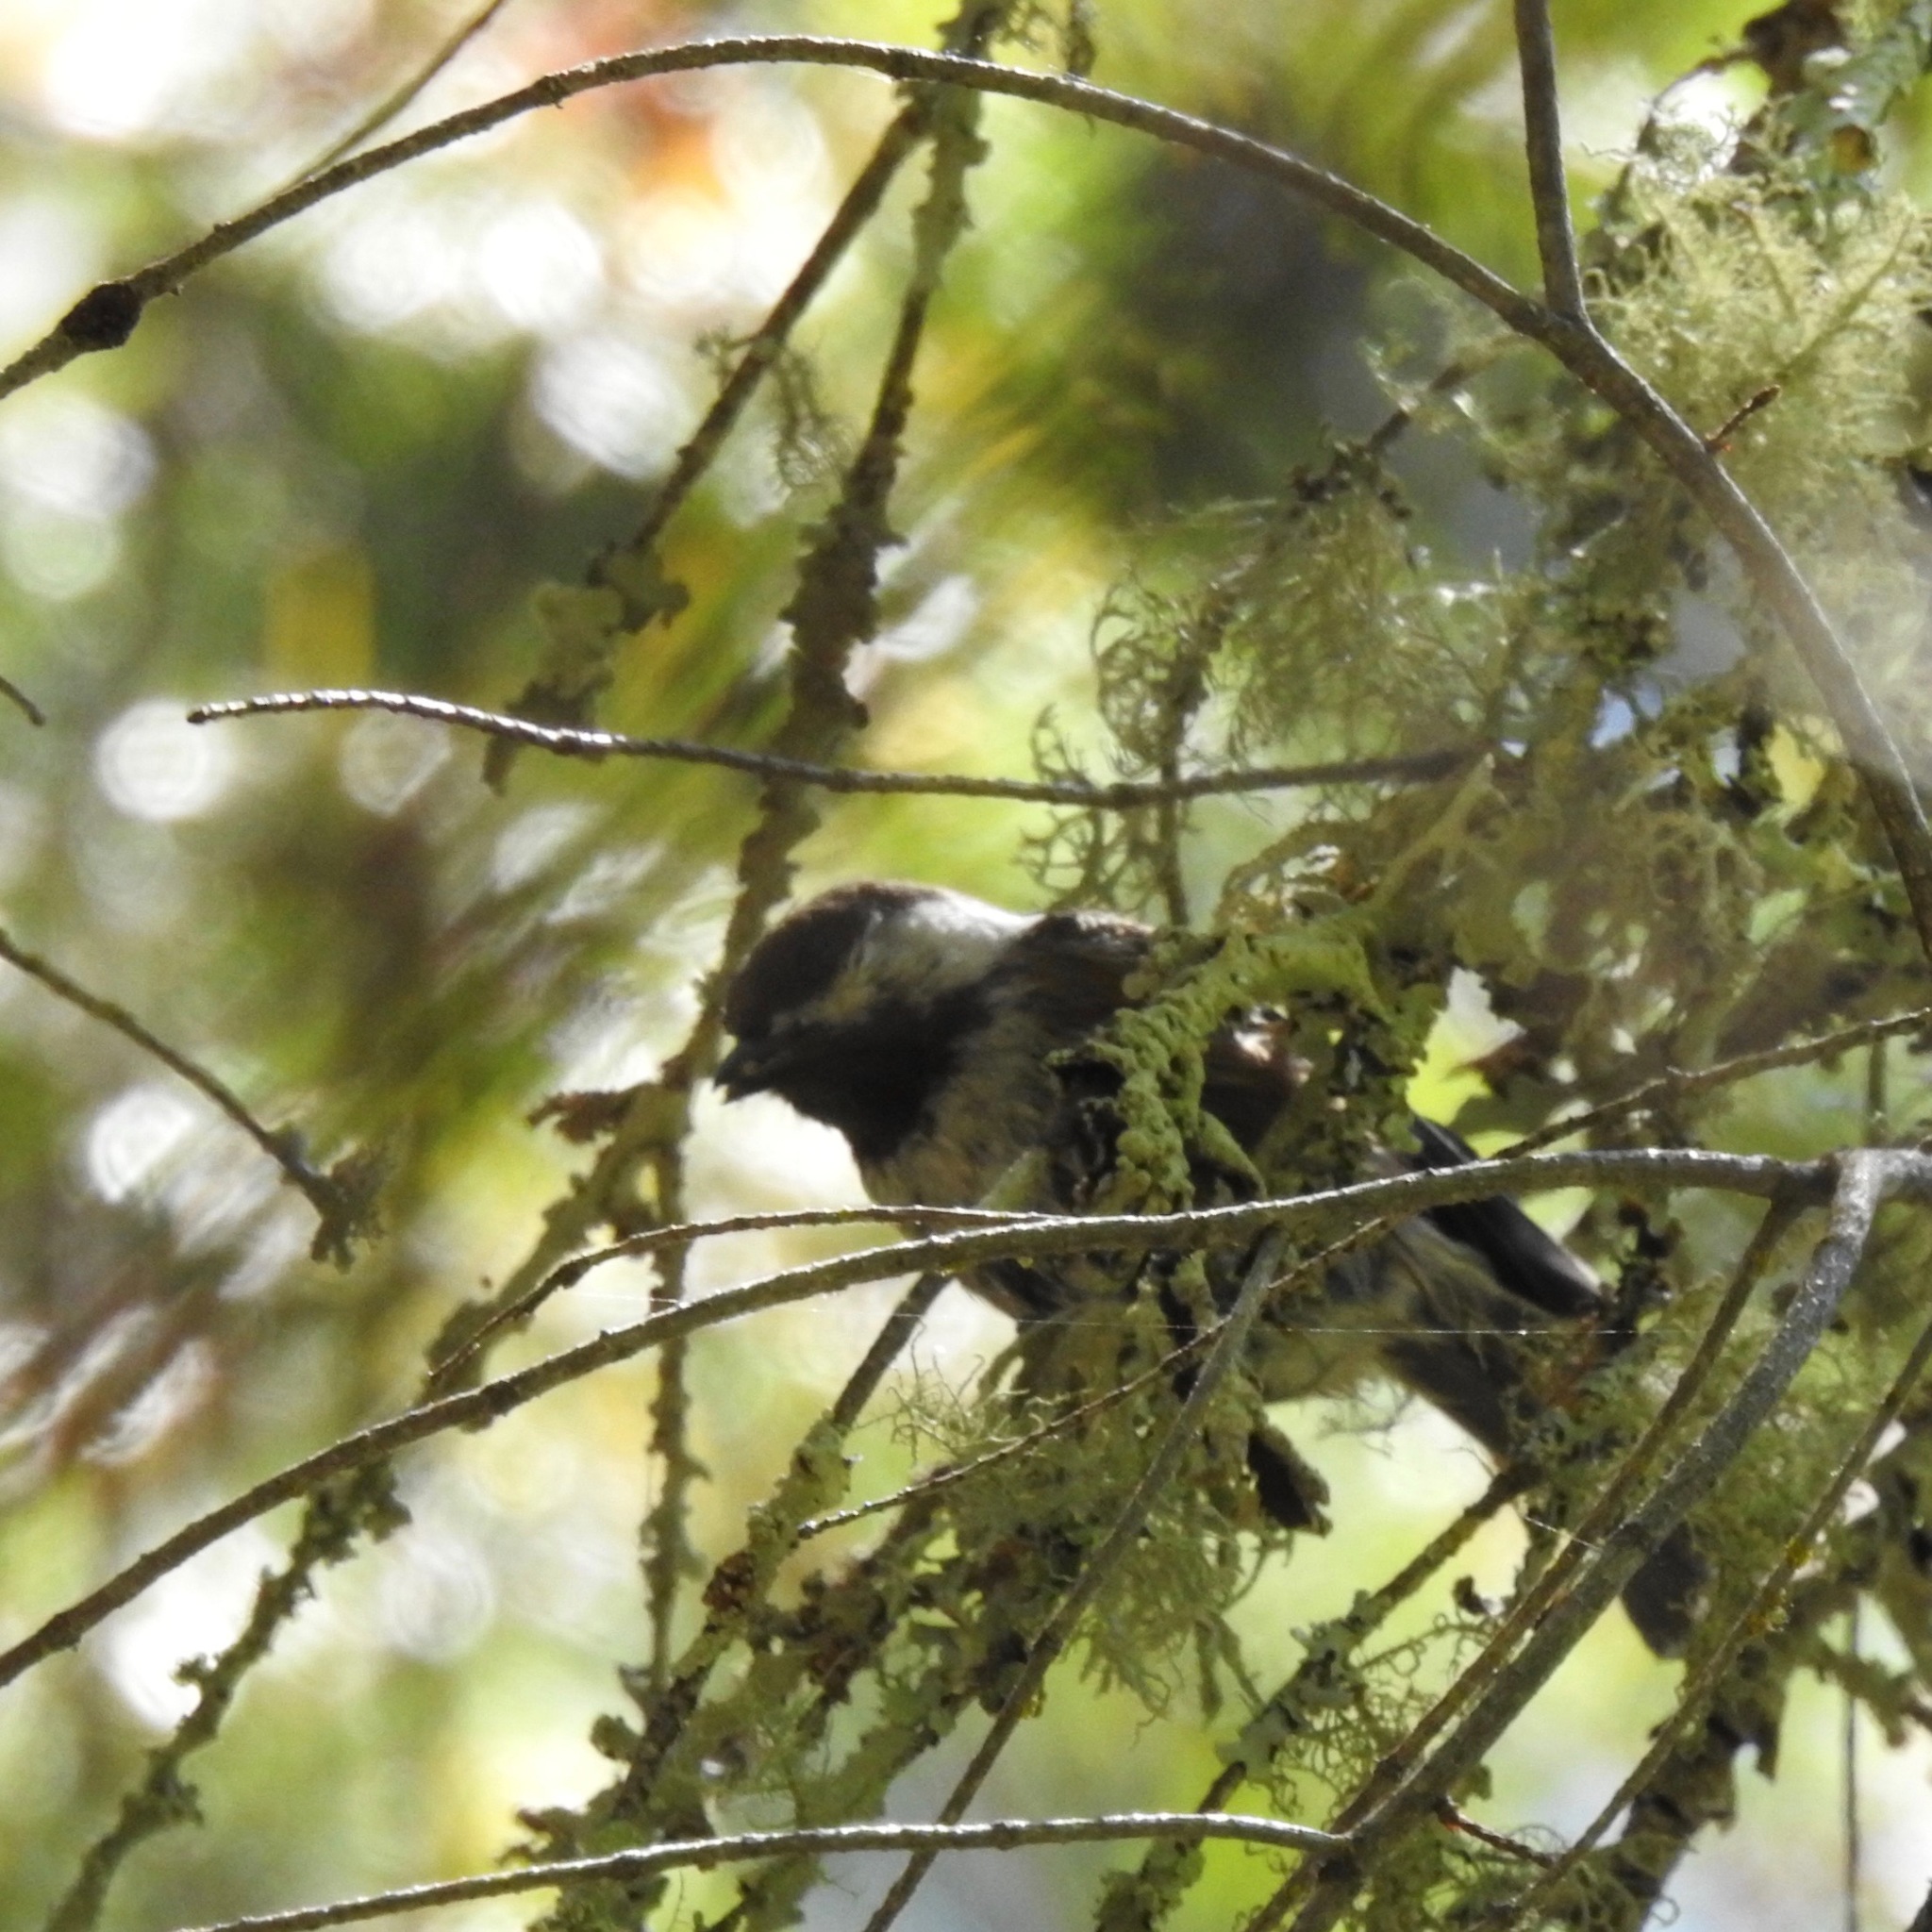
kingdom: Animalia
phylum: Chordata
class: Aves
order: Passeriformes
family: Paridae
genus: Poecile
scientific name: Poecile rufescens
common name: Chestnut-backed chickadee
